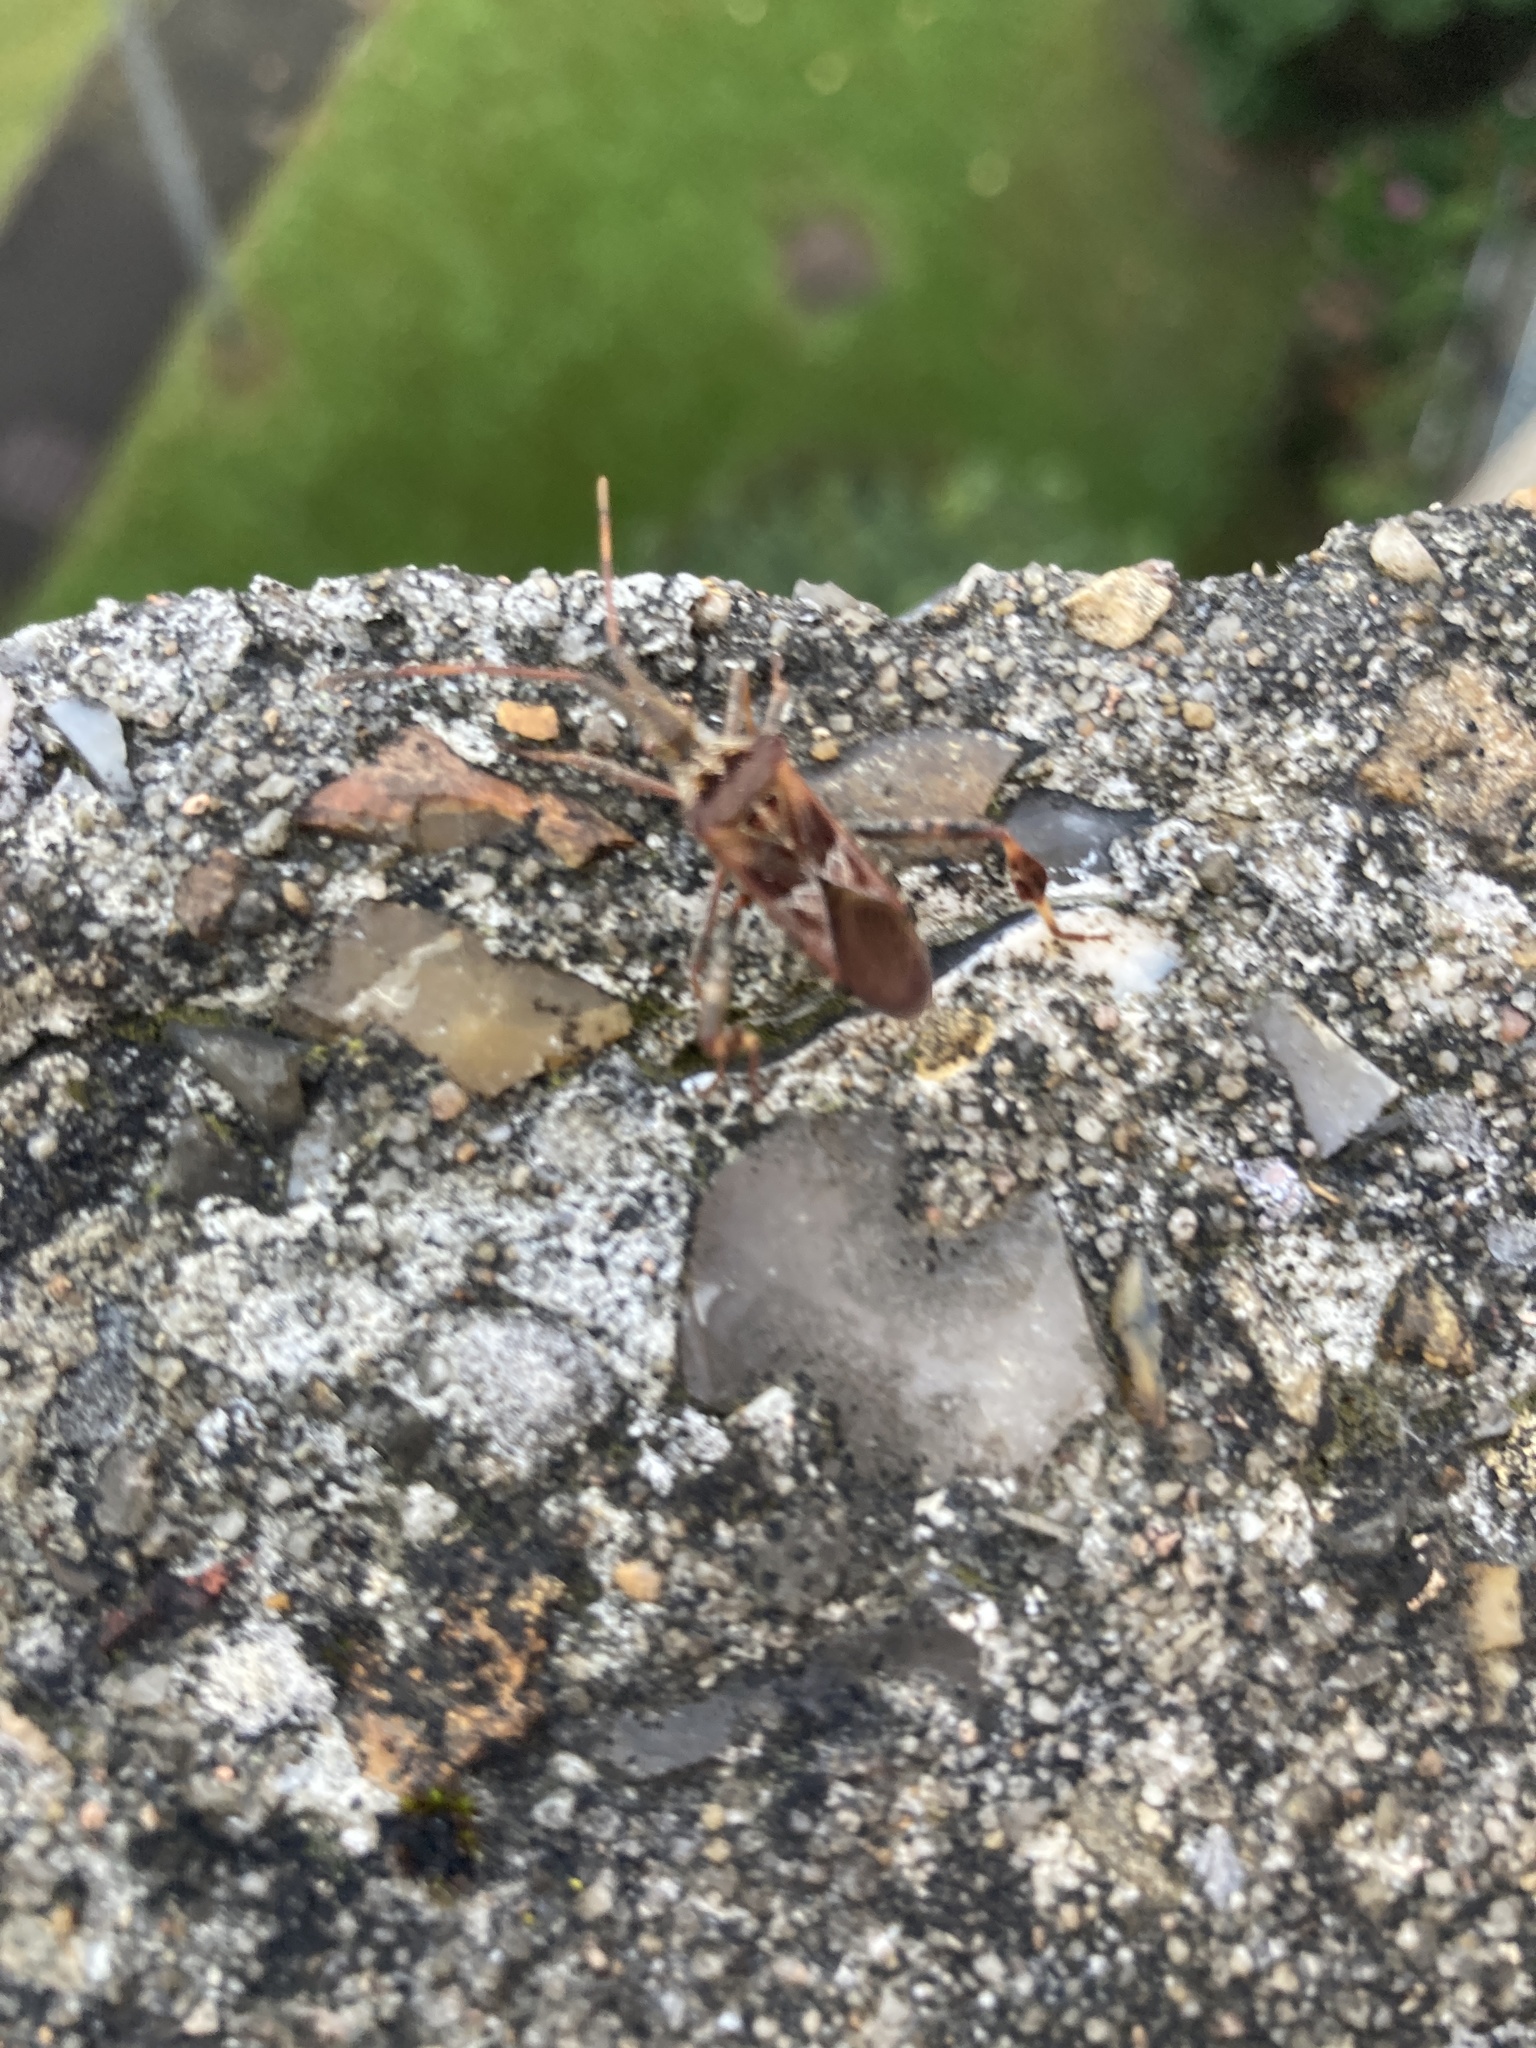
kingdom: Animalia
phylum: Arthropoda
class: Insecta
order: Hemiptera
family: Coreidae
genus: Leptoglossus
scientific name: Leptoglossus occidentalis
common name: Western conifer-seed bug
